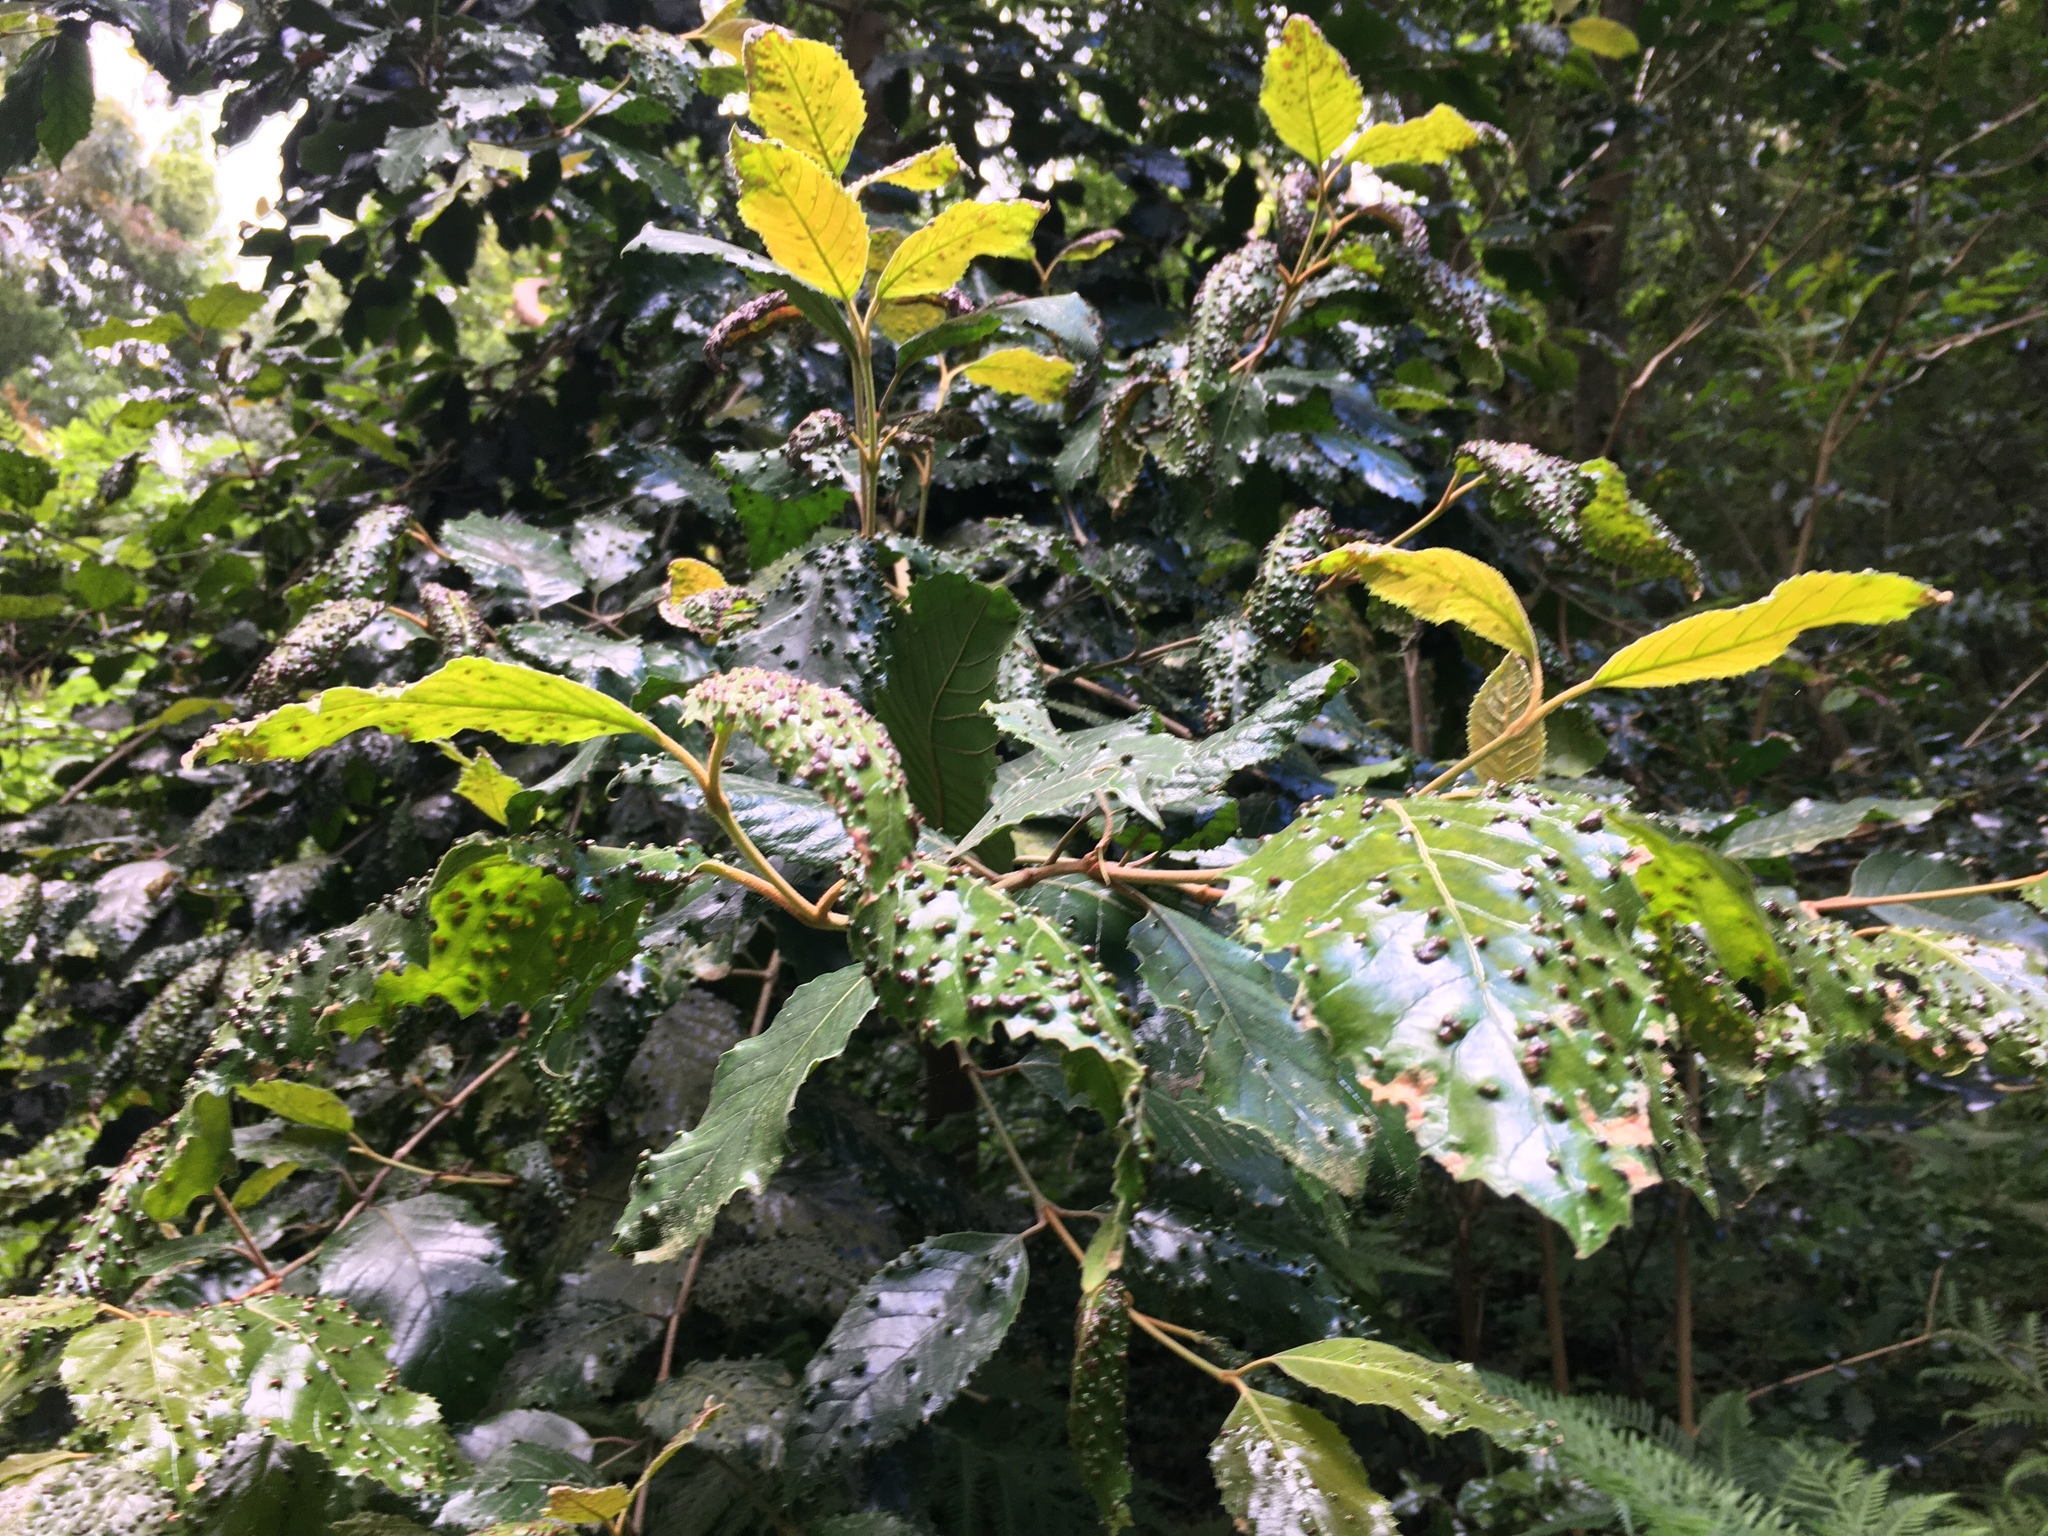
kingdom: Plantae
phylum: Tracheophyta
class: Magnoliopsida
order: Cornales
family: Curtisiaceae
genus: Curtisia
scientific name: Curtisia dentata
